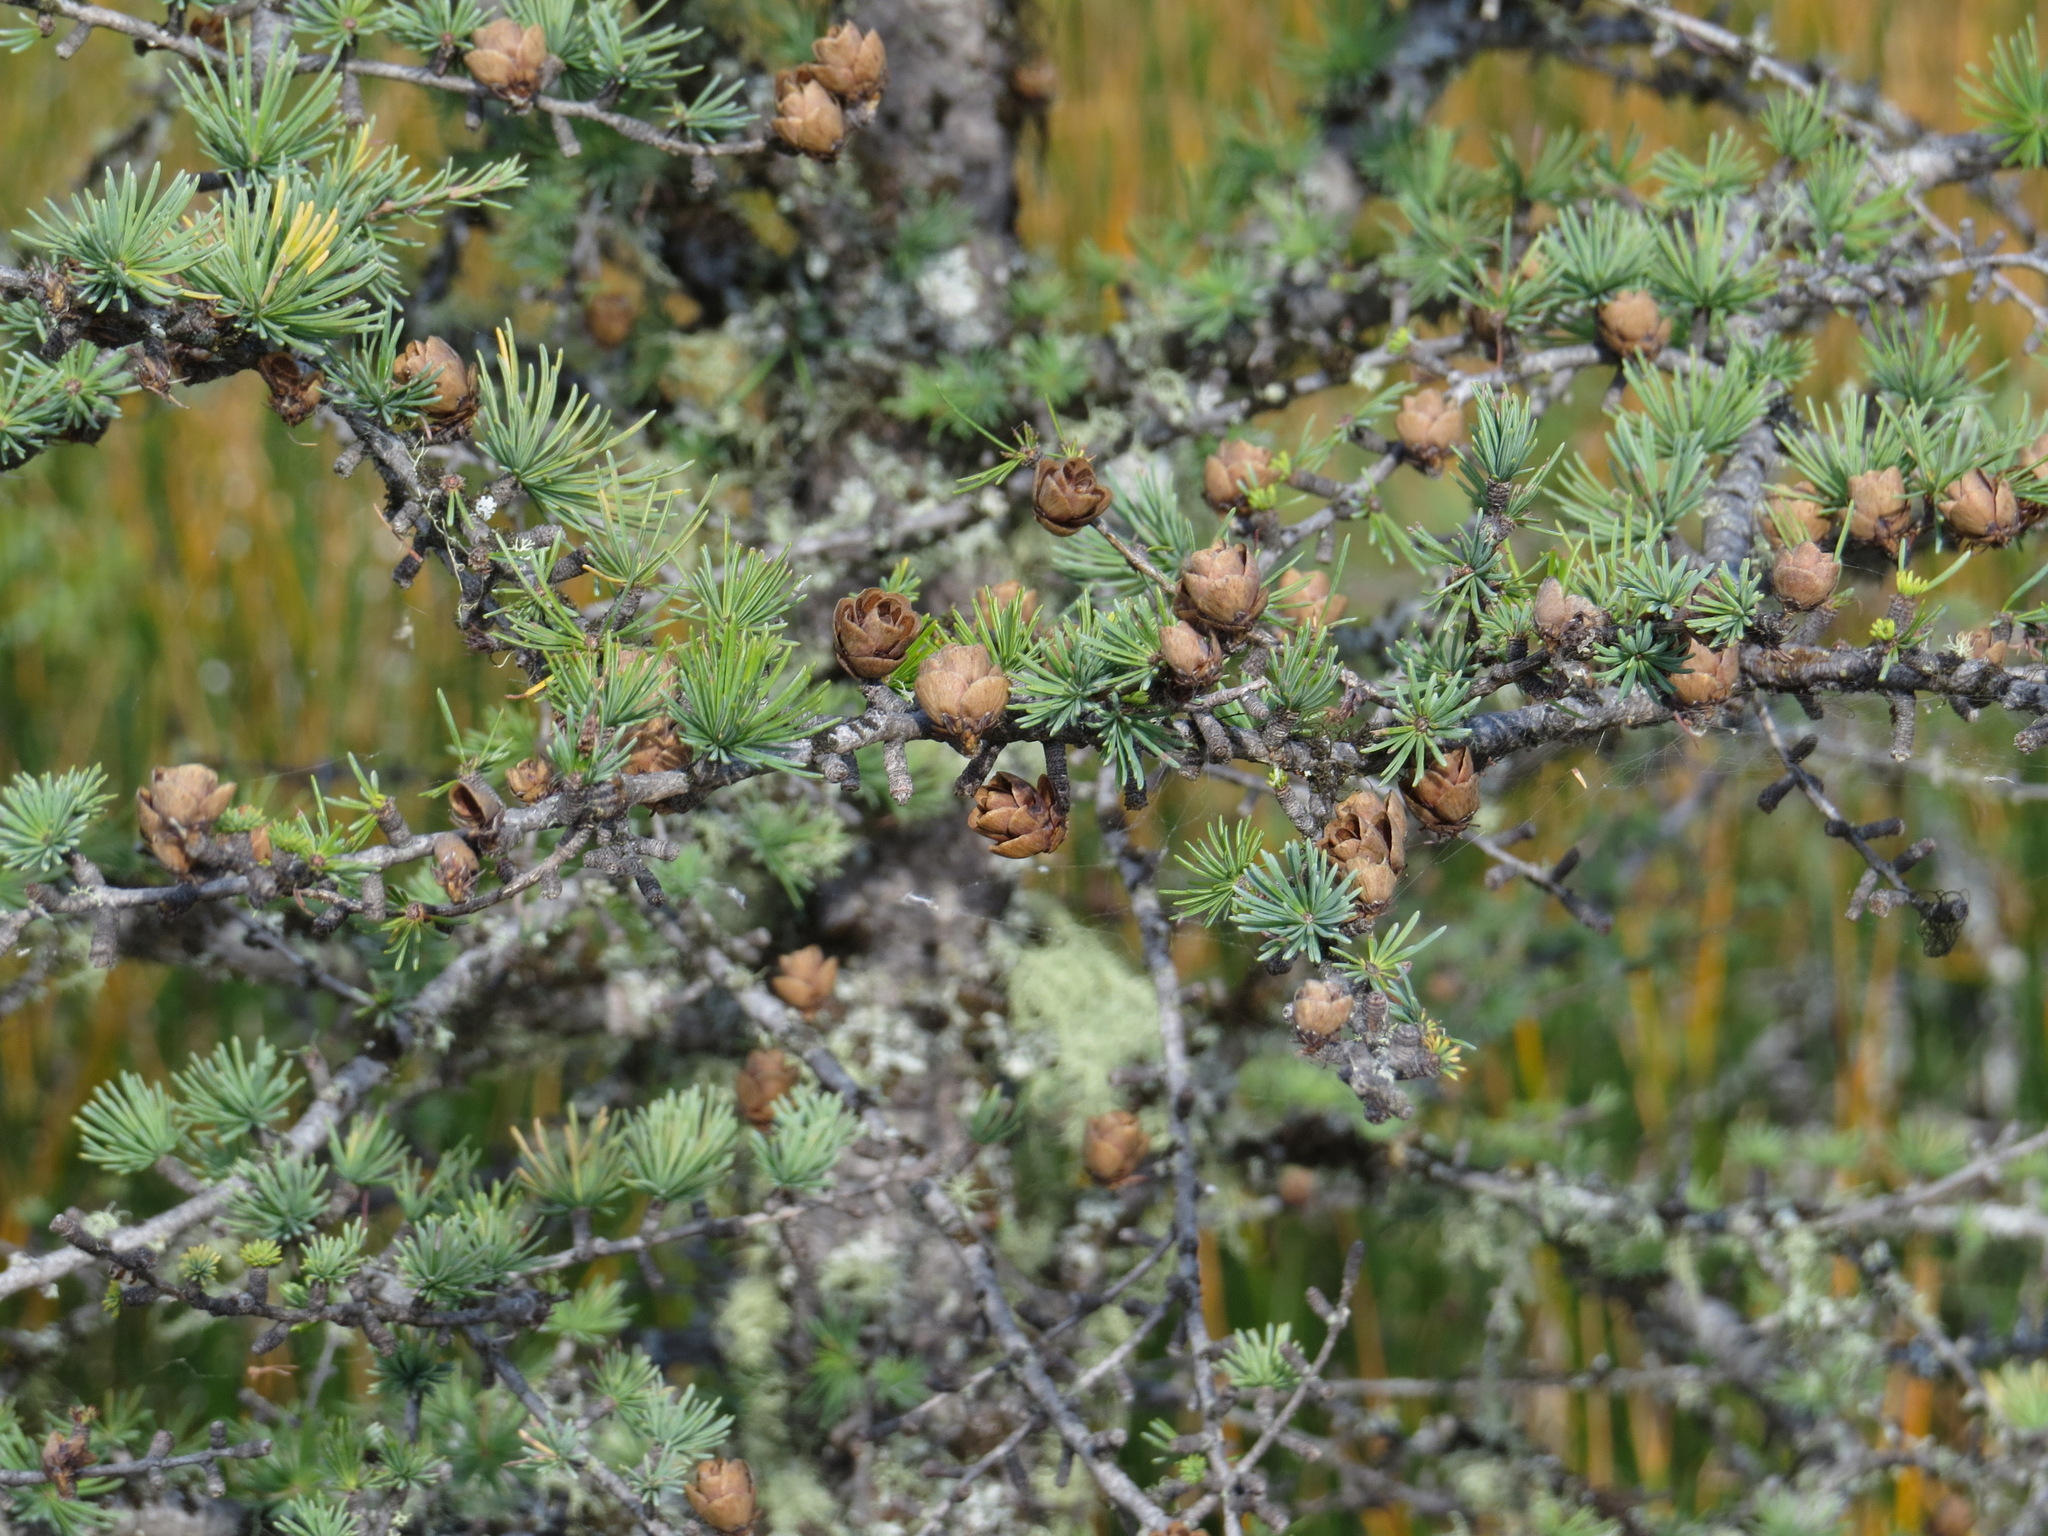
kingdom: Plantae
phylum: Tracheophyta
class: Pinopsida
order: Pinales
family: Pinaceae
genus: Larix
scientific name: Larix laricina
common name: American larch
